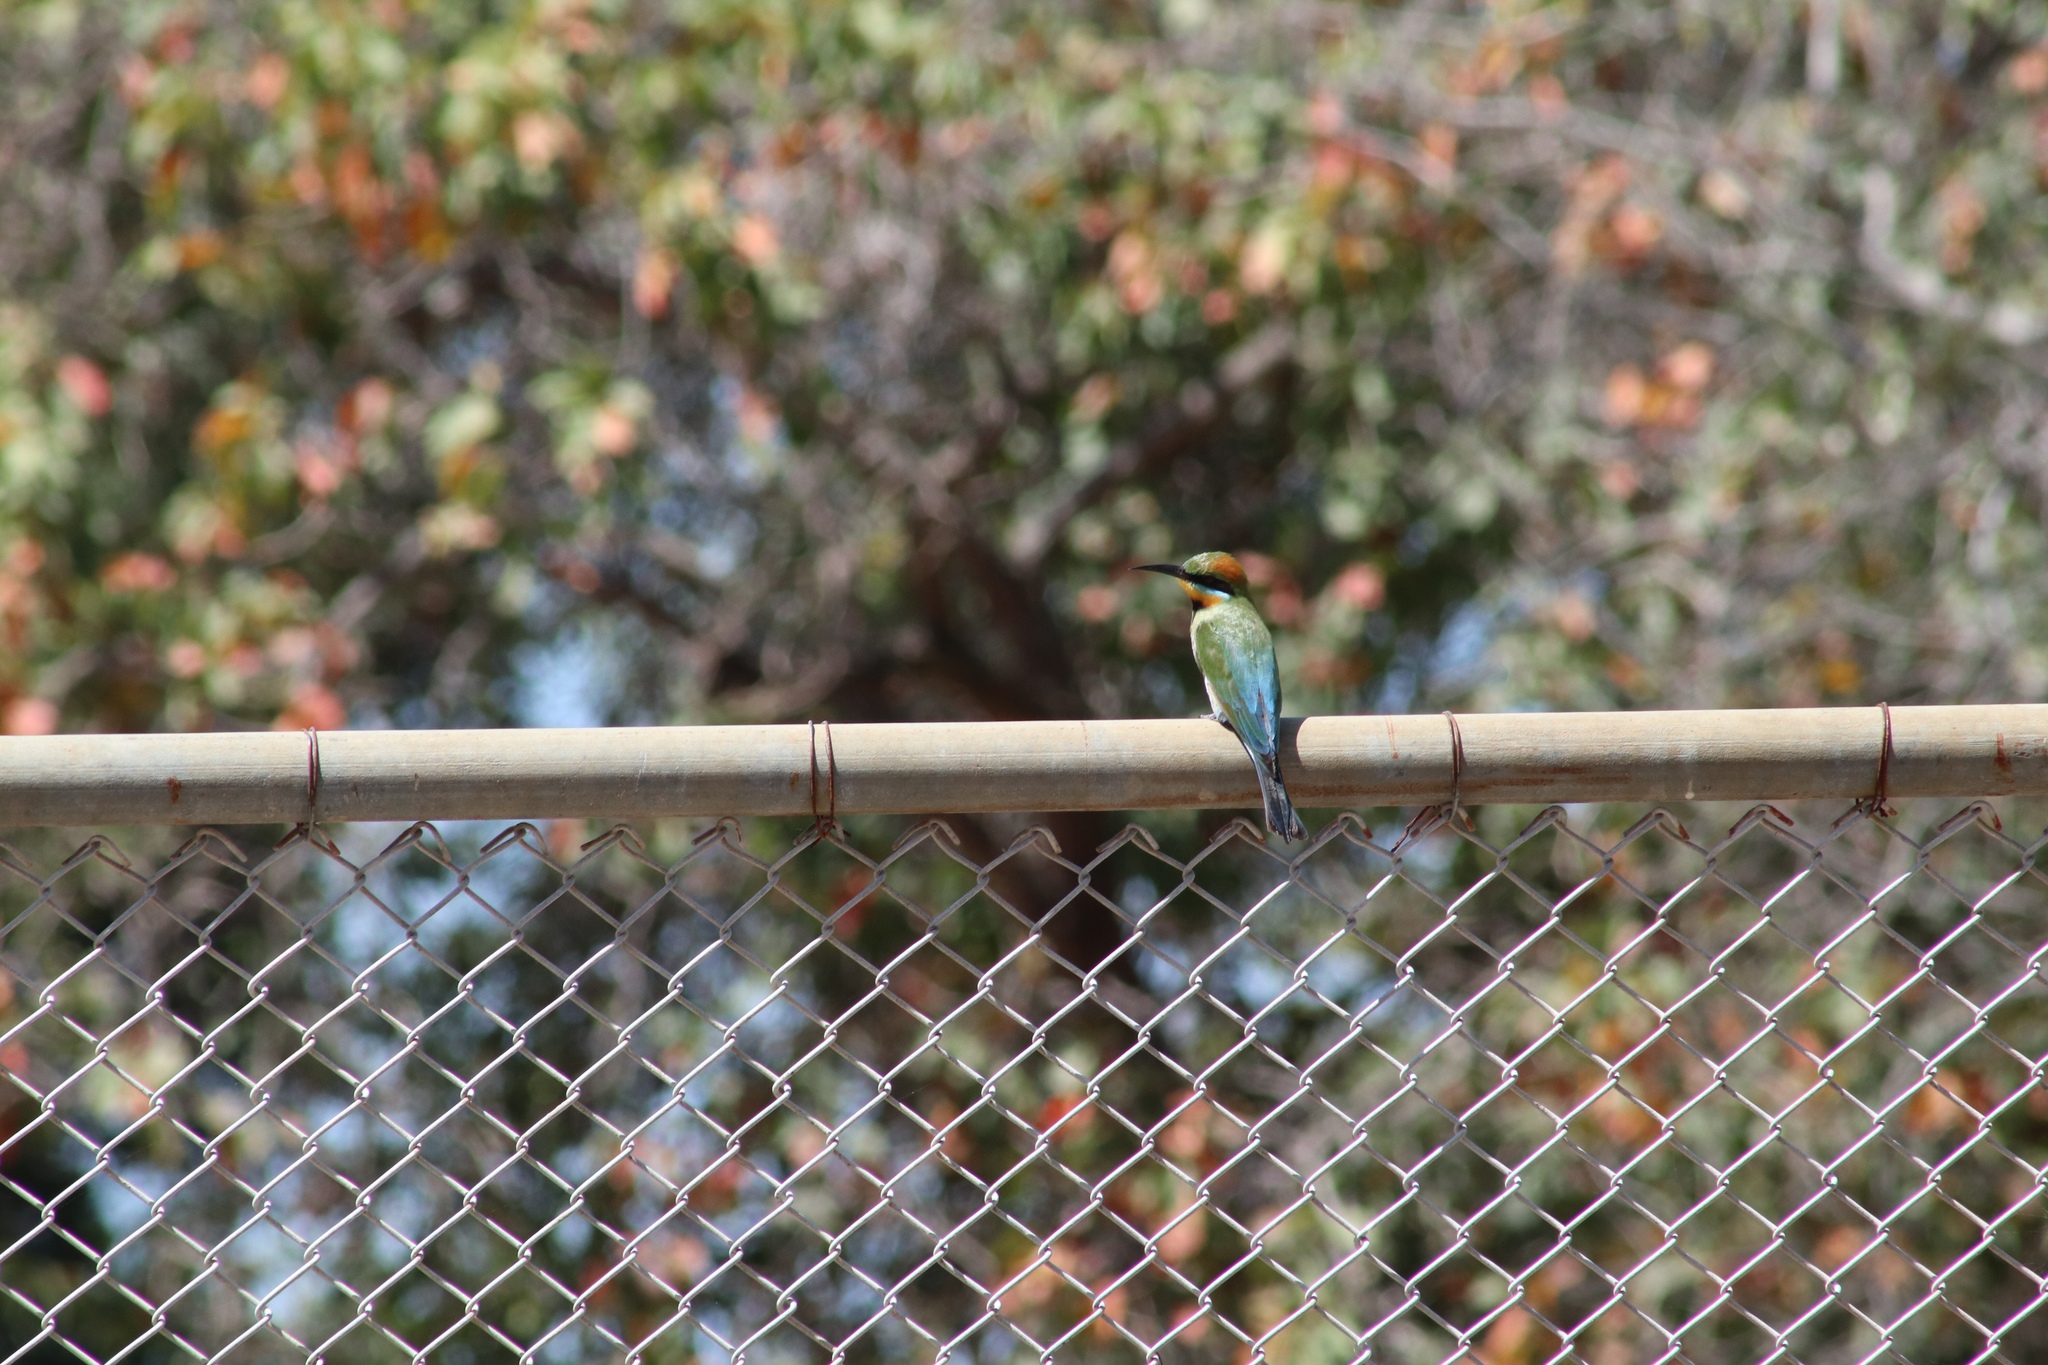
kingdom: Animalia
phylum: Chordata
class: Aves
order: Coraciiformes
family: Meropidae
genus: Merops
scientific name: Merops ornatus
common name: Rainbow bee-eater
